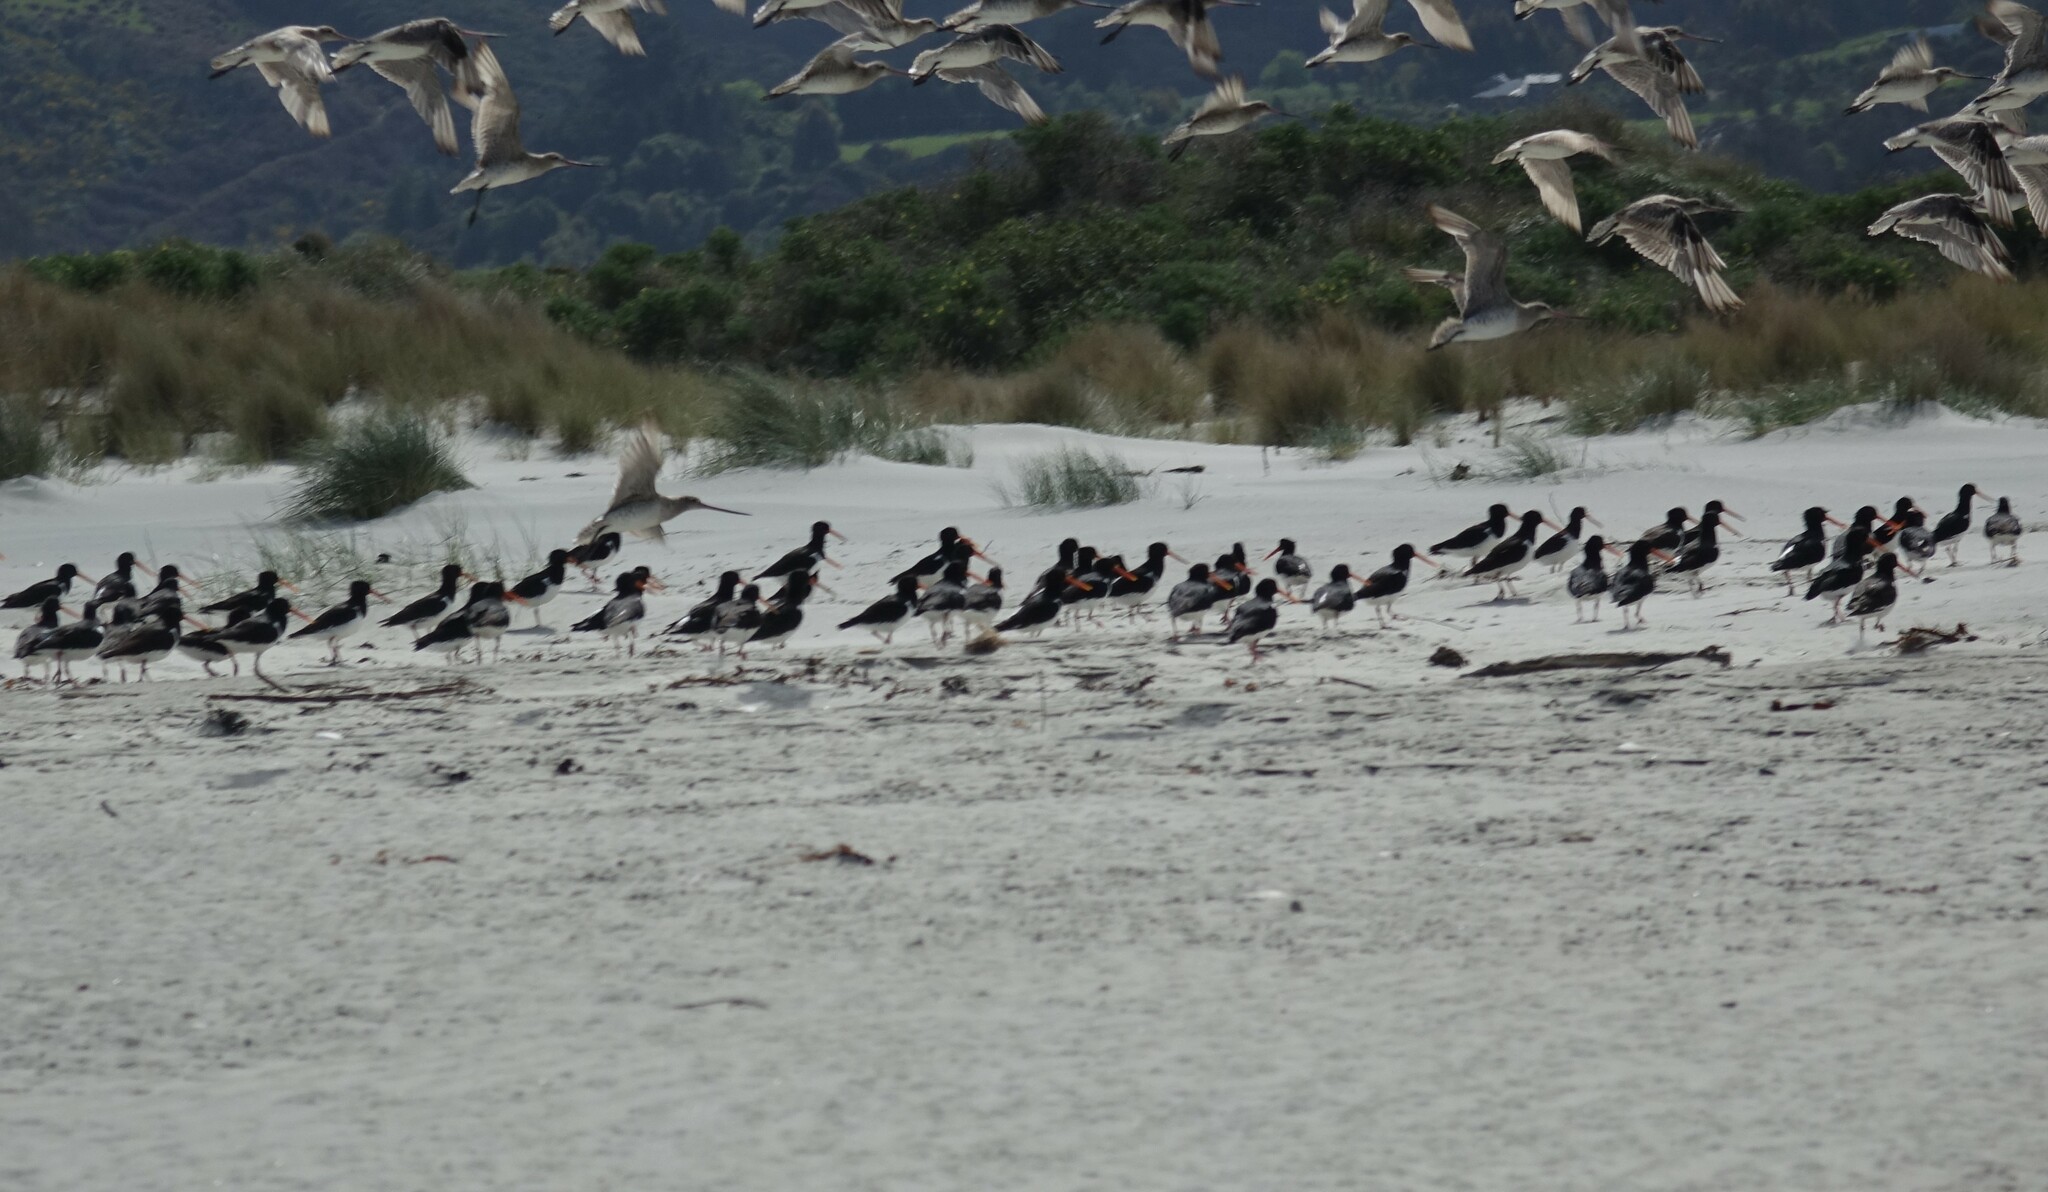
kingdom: Animalia
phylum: Chordata
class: Aves
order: Charadriiformes
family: Haematopodidae
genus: Haematopus
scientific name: Haematopus finschi
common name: South island oystercatcher
